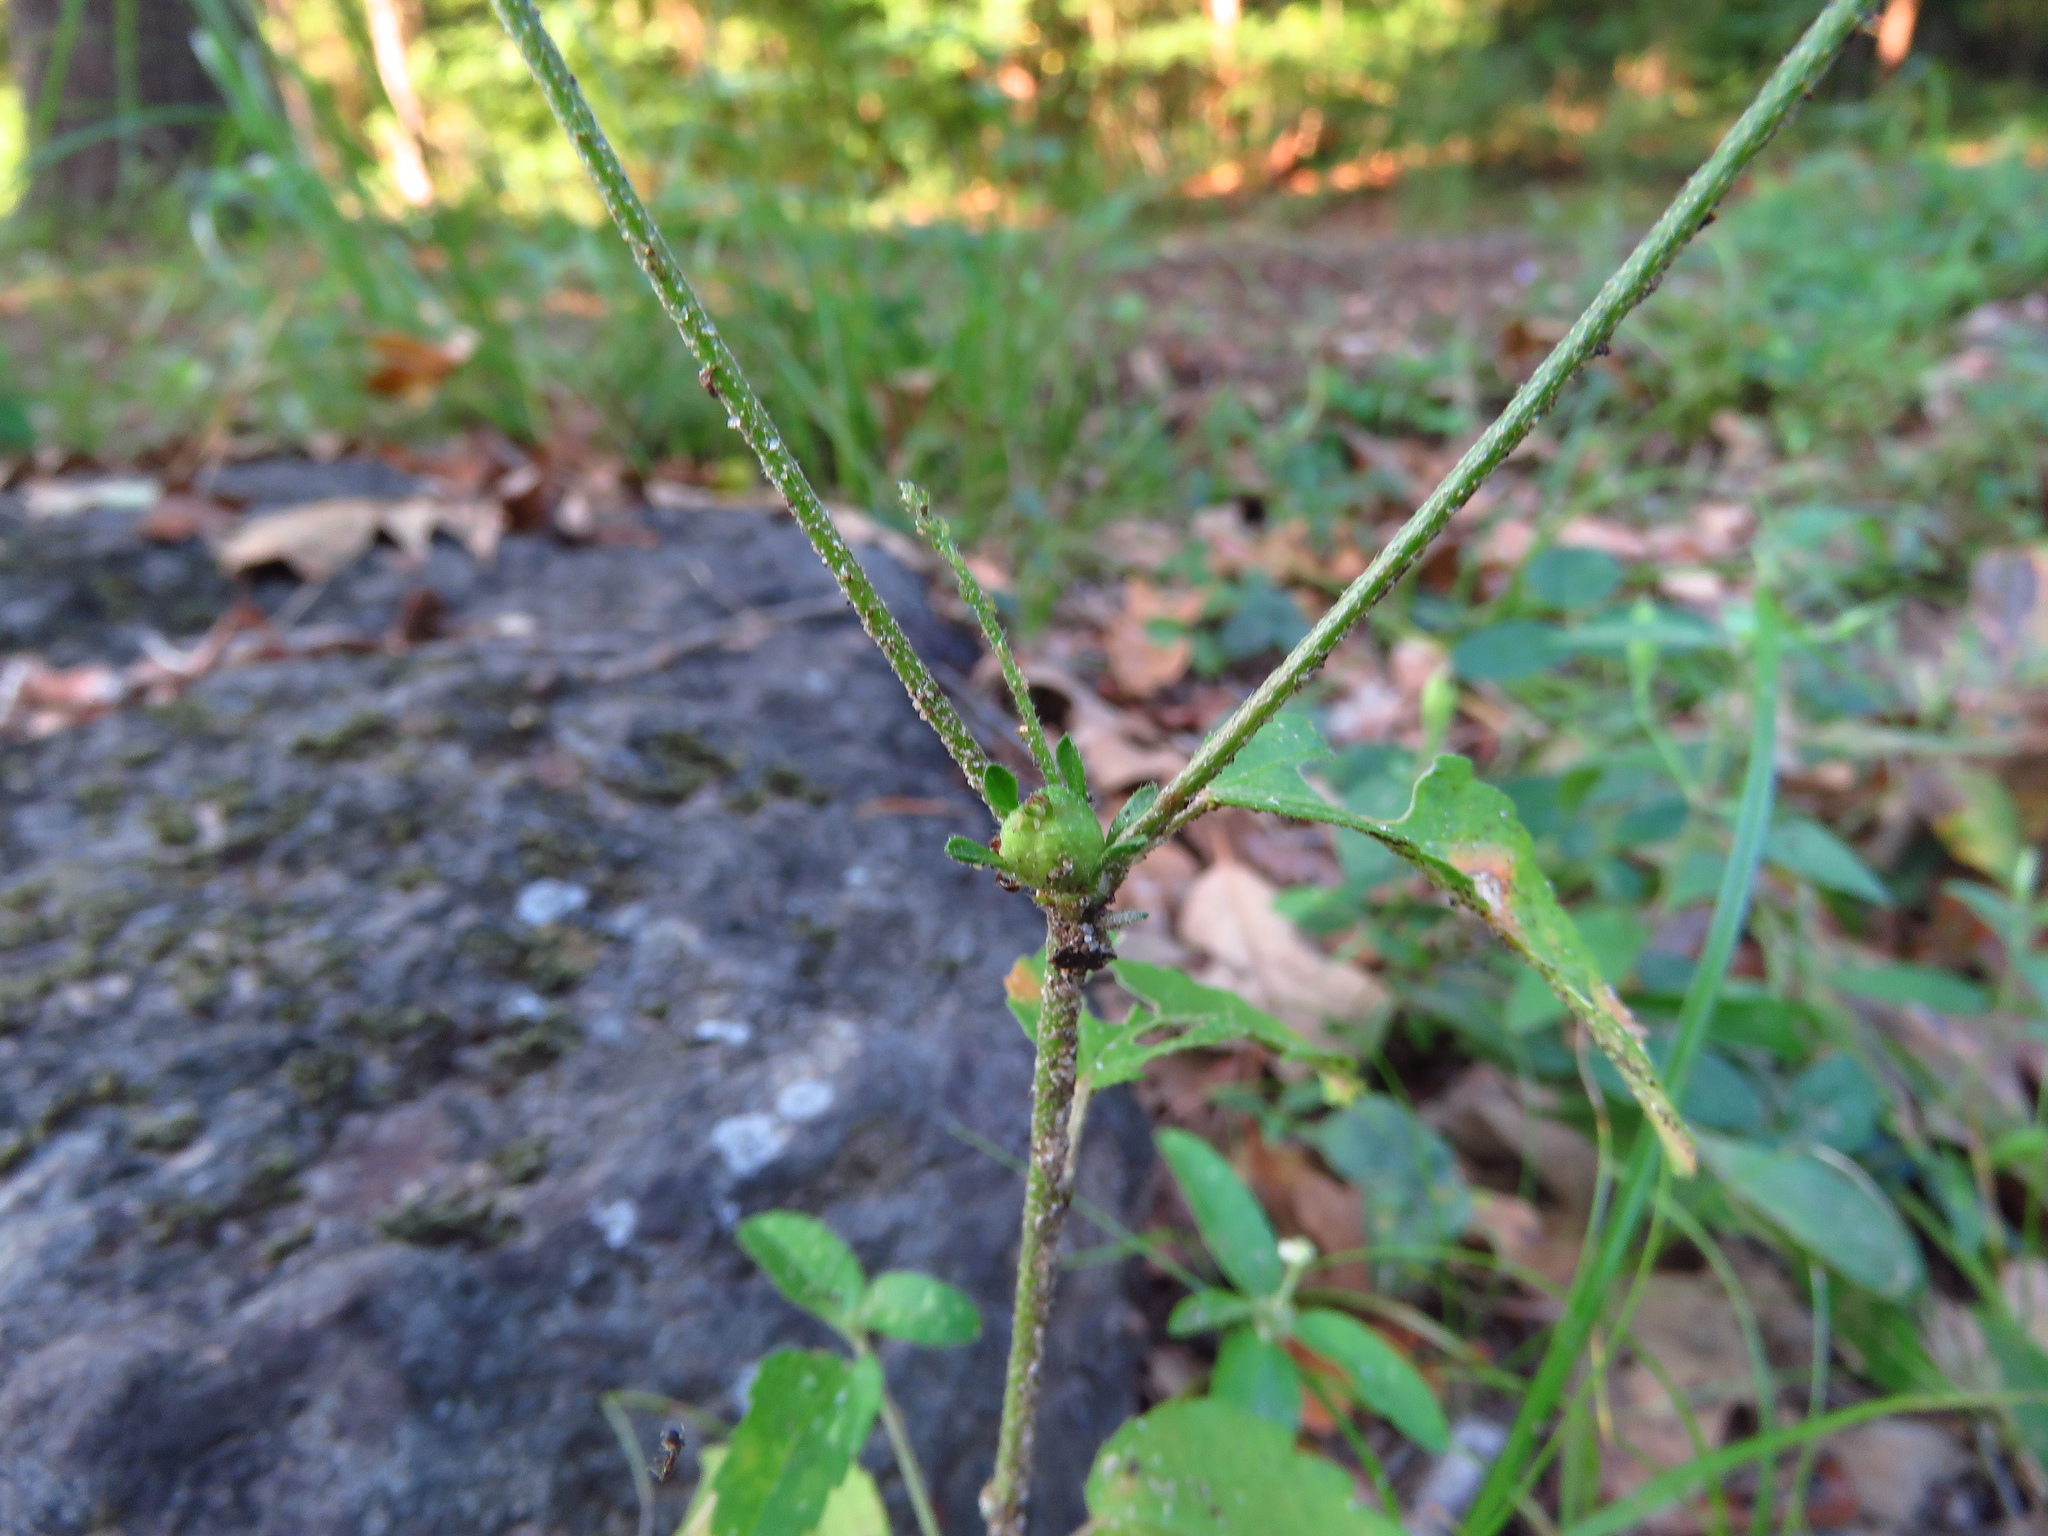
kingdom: Plantae
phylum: Tracheophyta
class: Magnoliopsida
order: Malpighiales
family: Euphorbiaceae
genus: Croton
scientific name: Croton glandulosus
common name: Tropic croton
